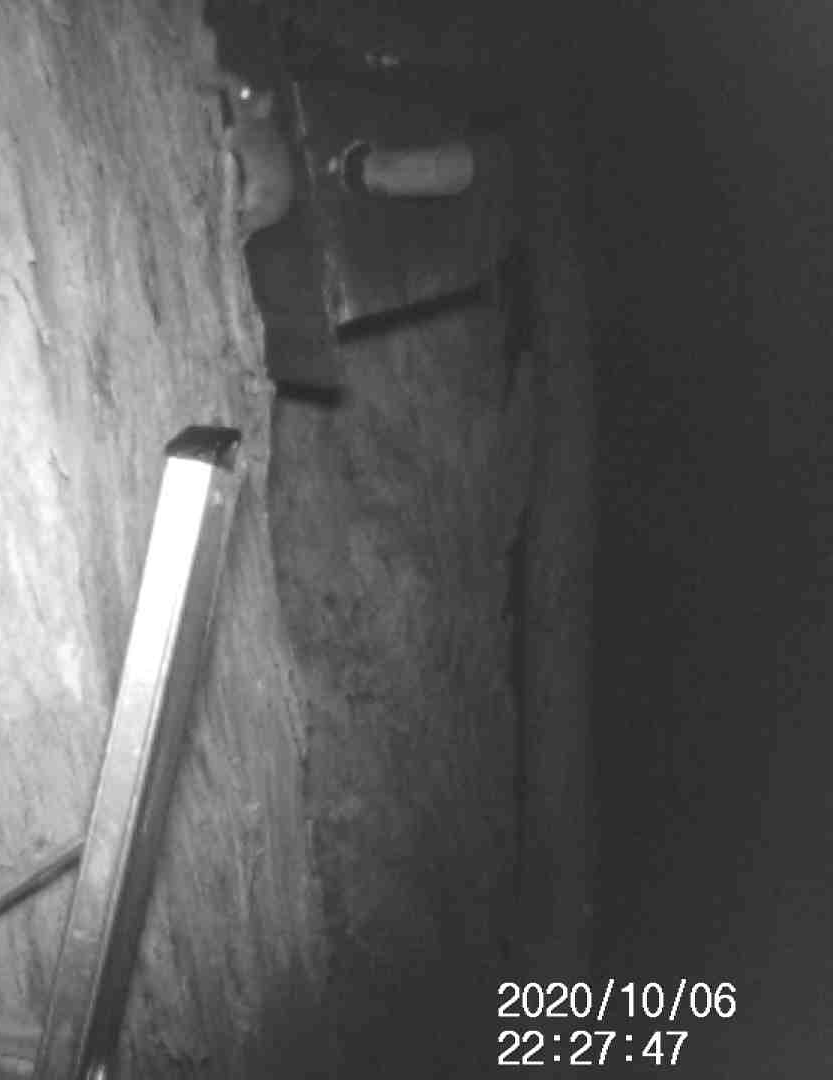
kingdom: Animalia
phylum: Chordata
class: Mammalia
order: Dasyuromorphia
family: Dasyuridae
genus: Antechinus
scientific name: Antechinus agilis
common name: Agile antechinus
